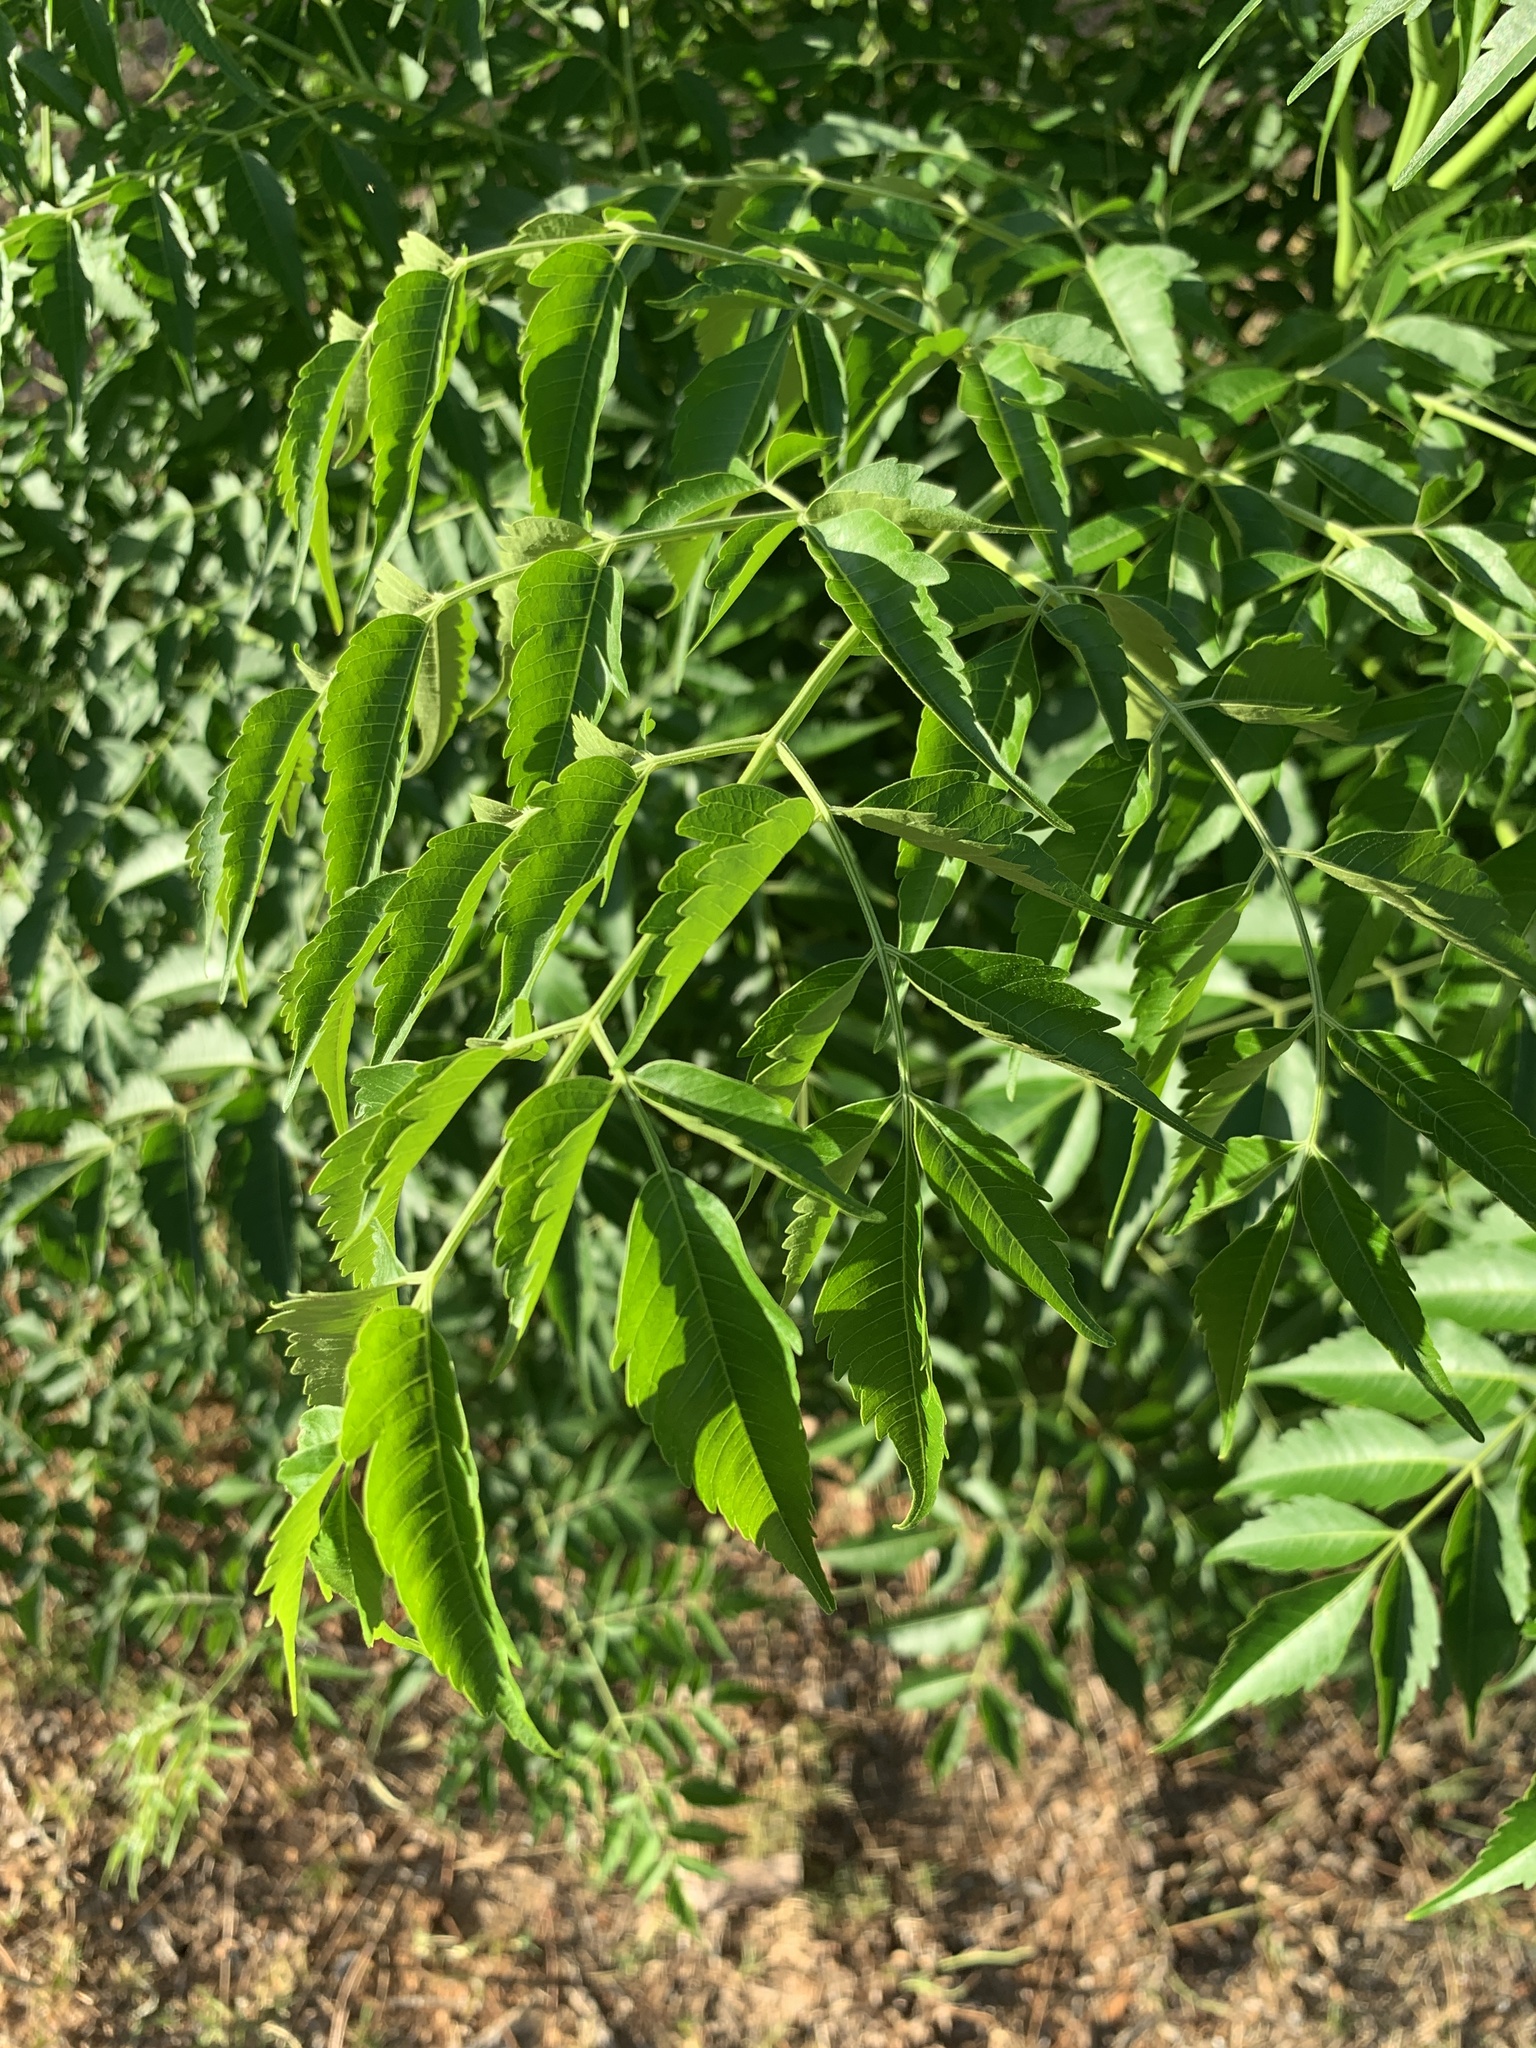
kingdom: Plantae
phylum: Tracheophyta
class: Magnoliopsida
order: Sapindales
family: Meliaceae
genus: Melia
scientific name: Melia azedarach
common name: Chinaberrytree
